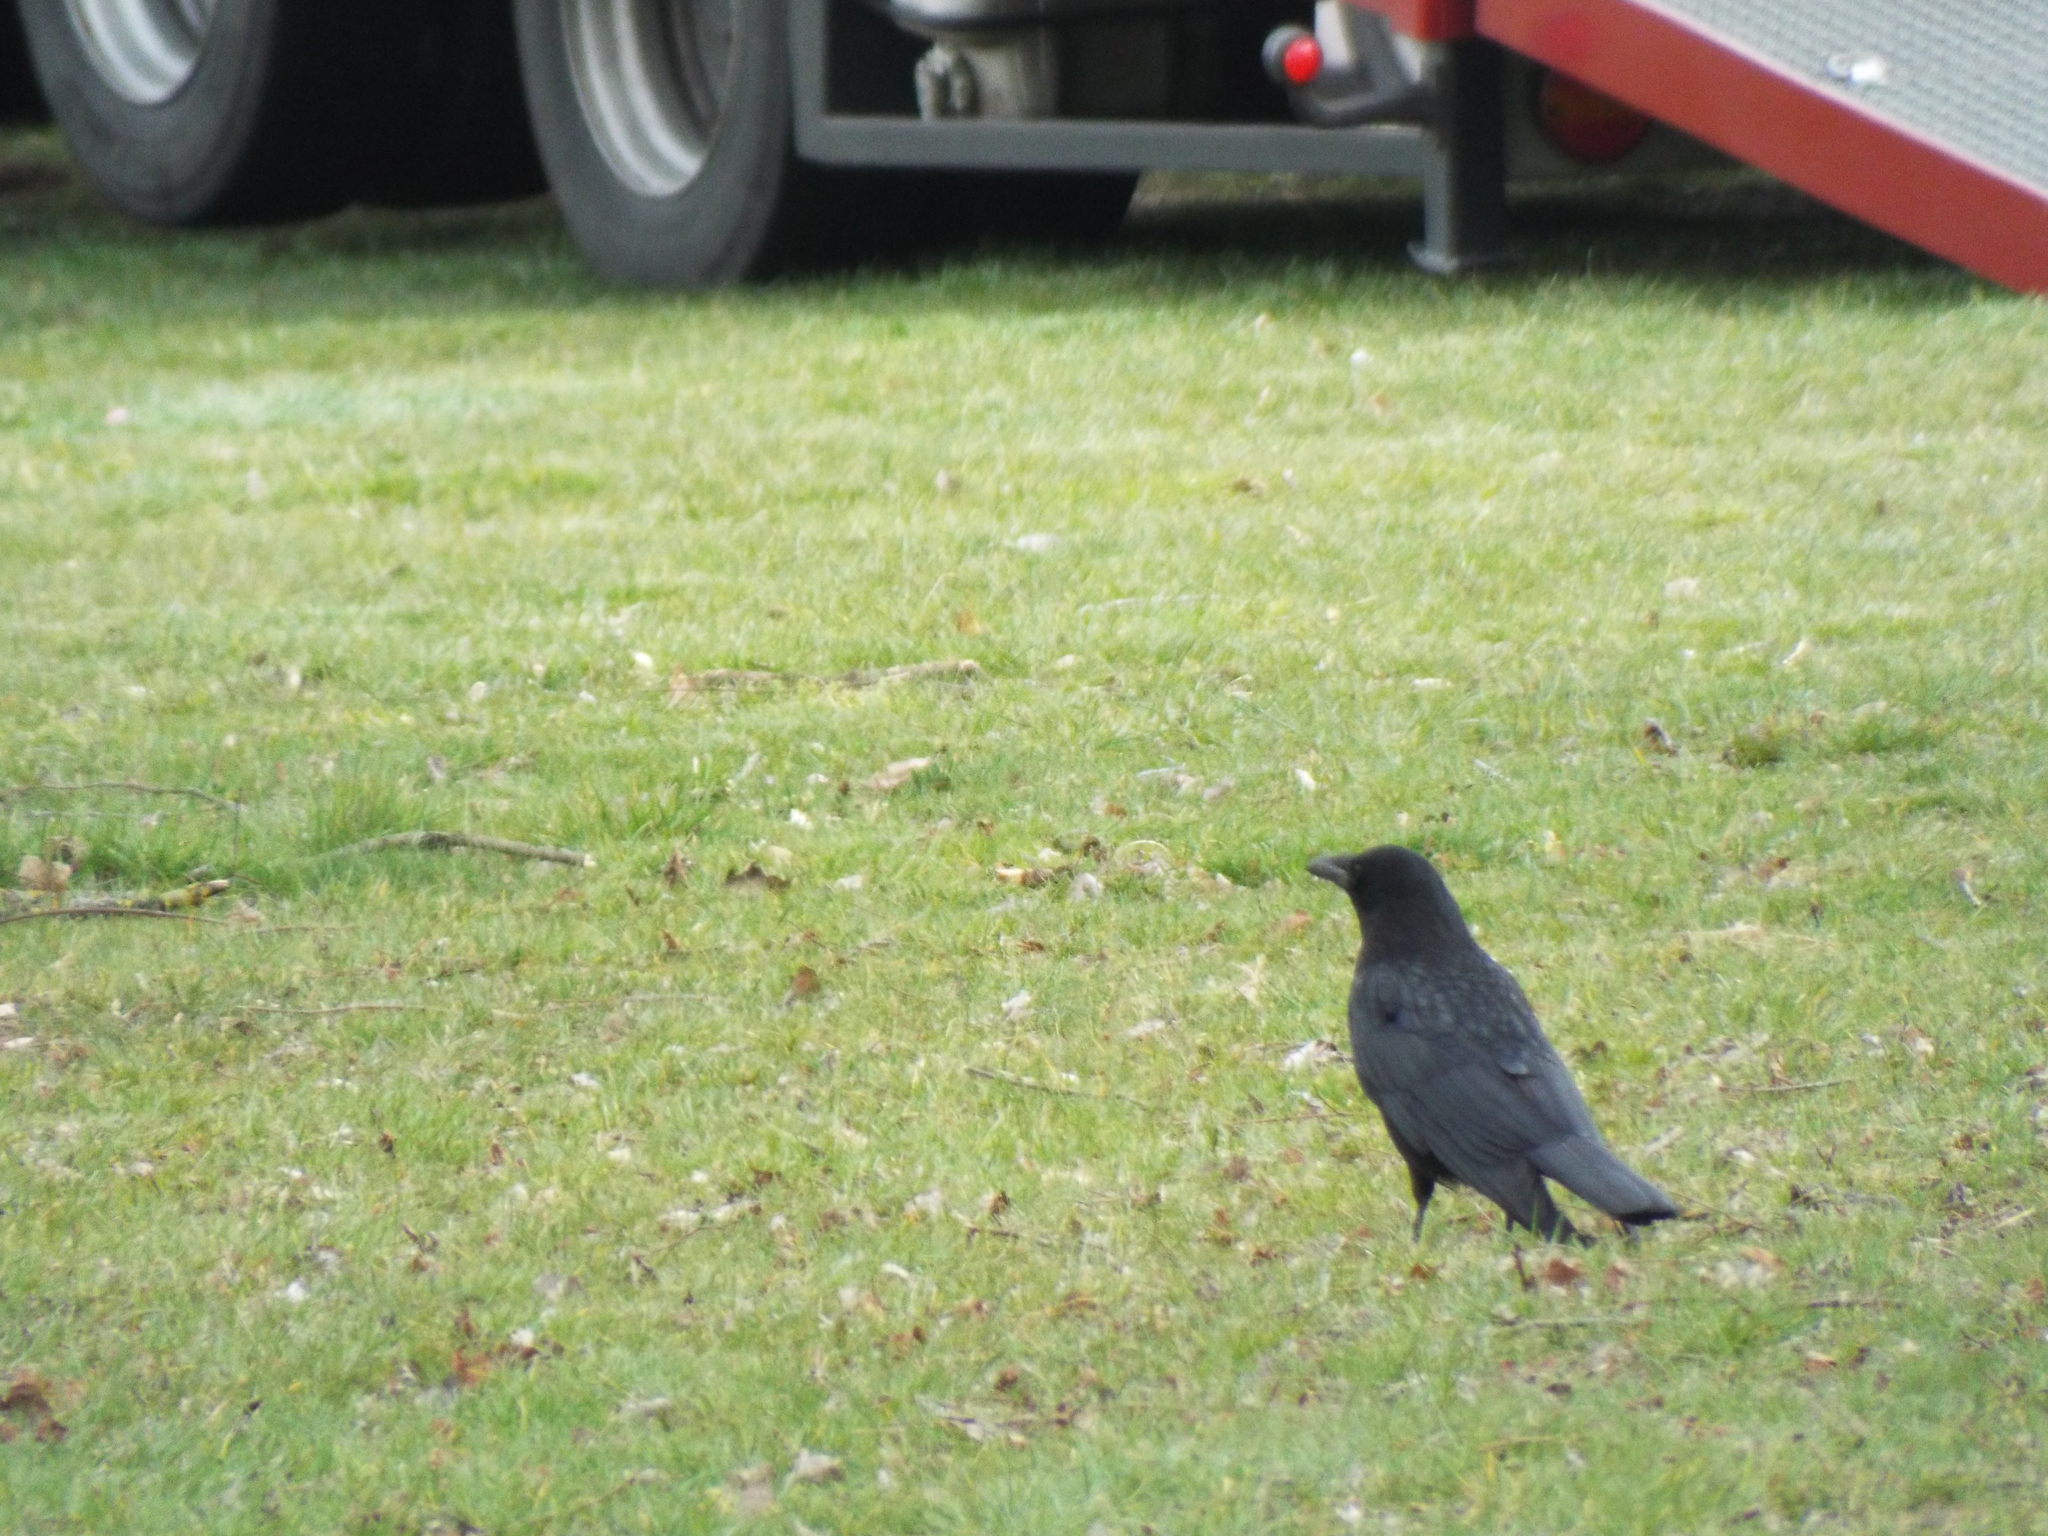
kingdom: Animalia
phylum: Chordata
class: Aves
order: Passeriformes
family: Corvidae
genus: Corvus
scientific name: Corvus corone
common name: Carrion crow
